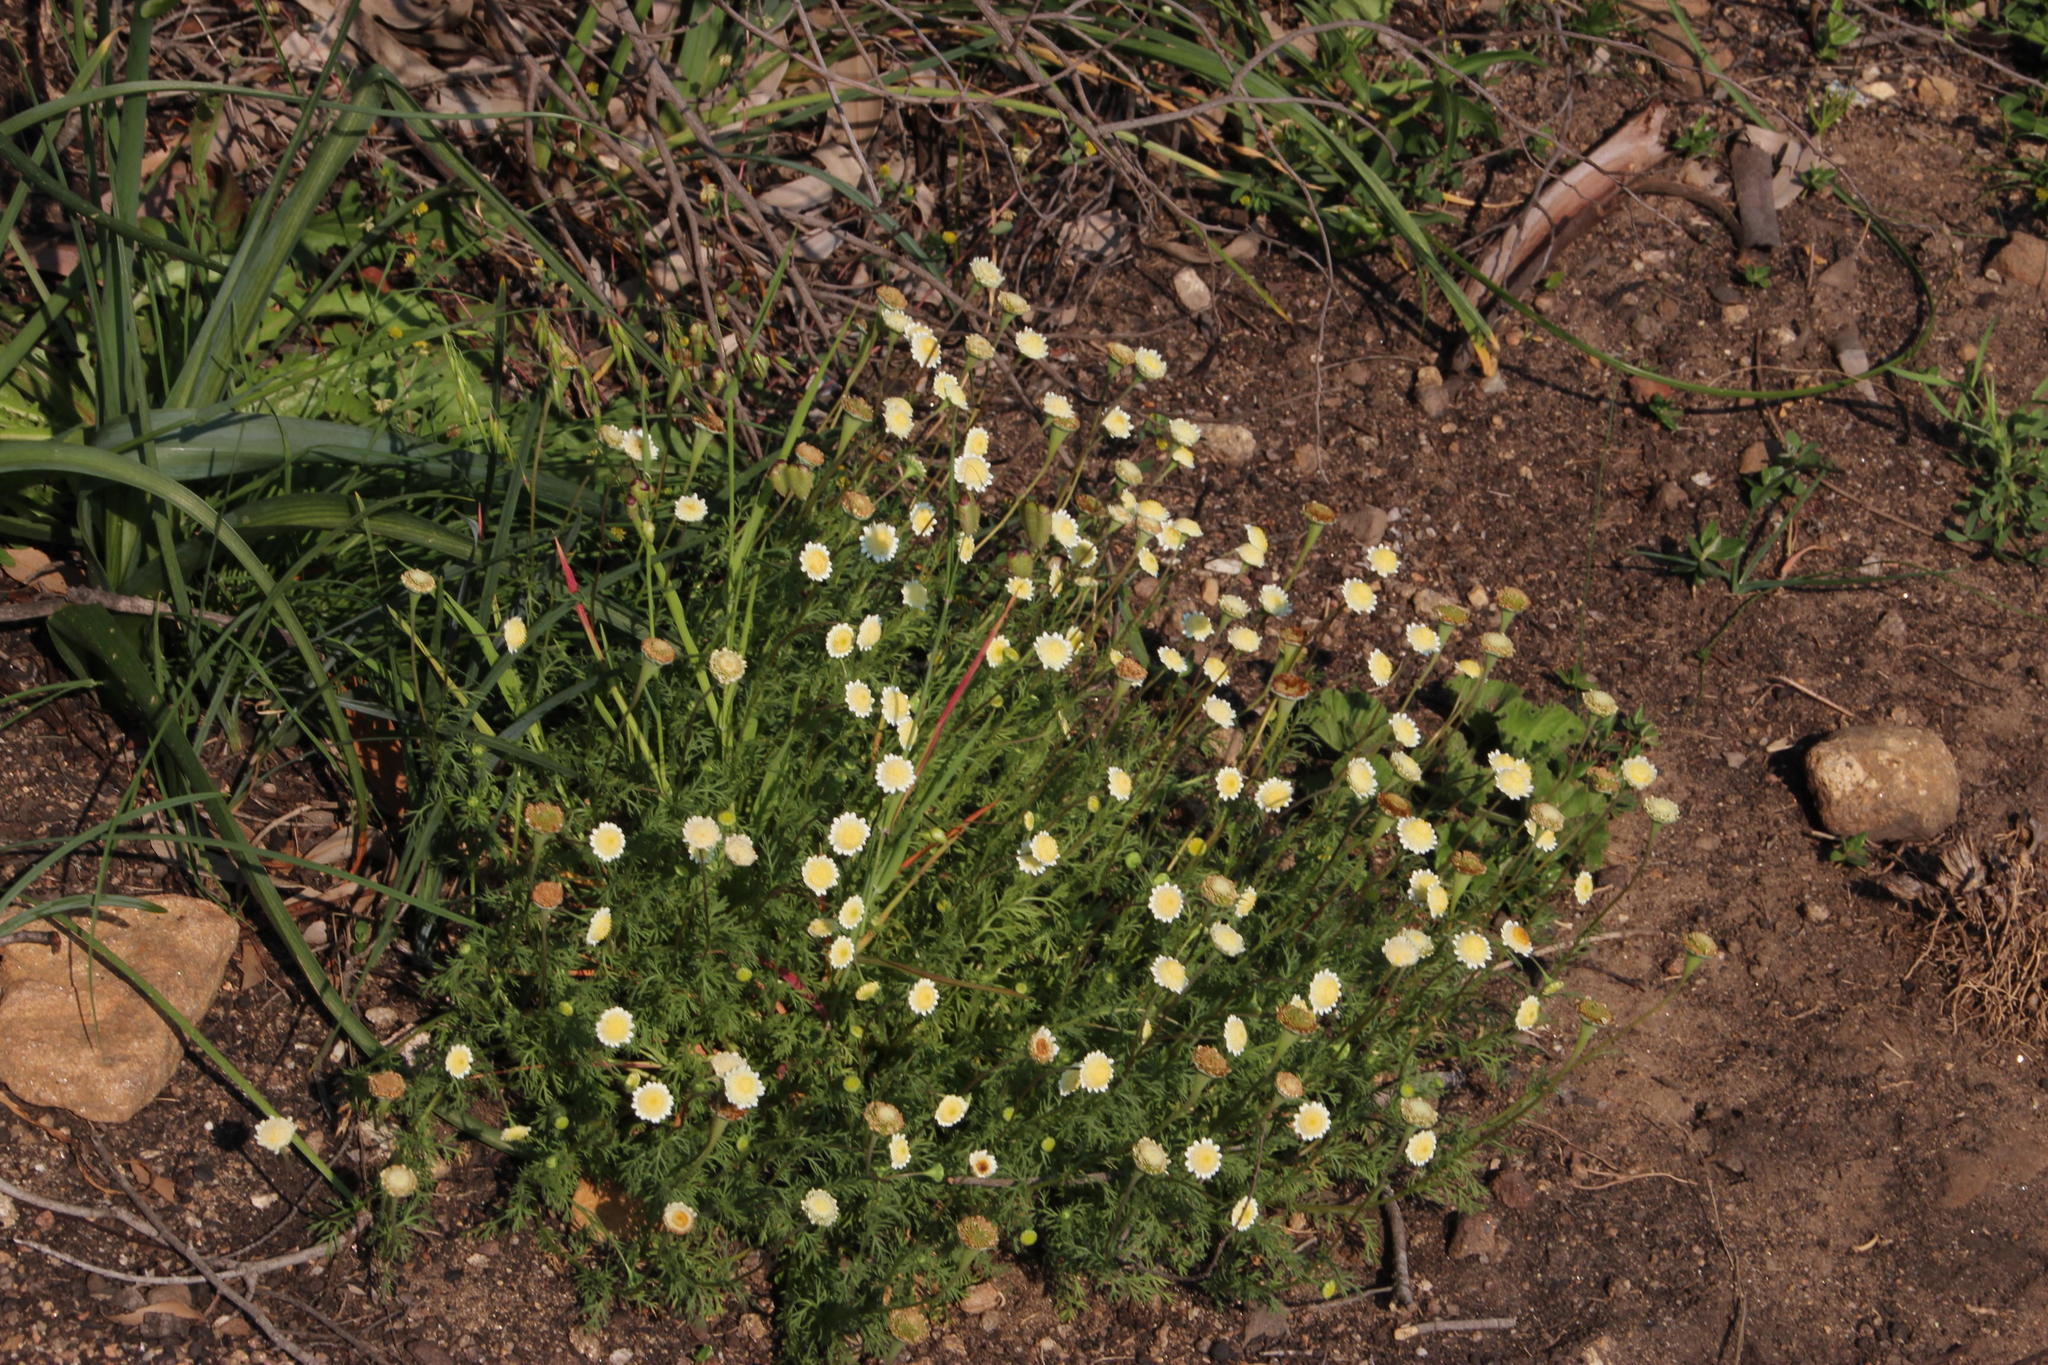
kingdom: Plantae
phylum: Tracheophyta
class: Magnoliopsida
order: Asterales
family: Asteraceae
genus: Cotula
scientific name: Cotula turbinata
